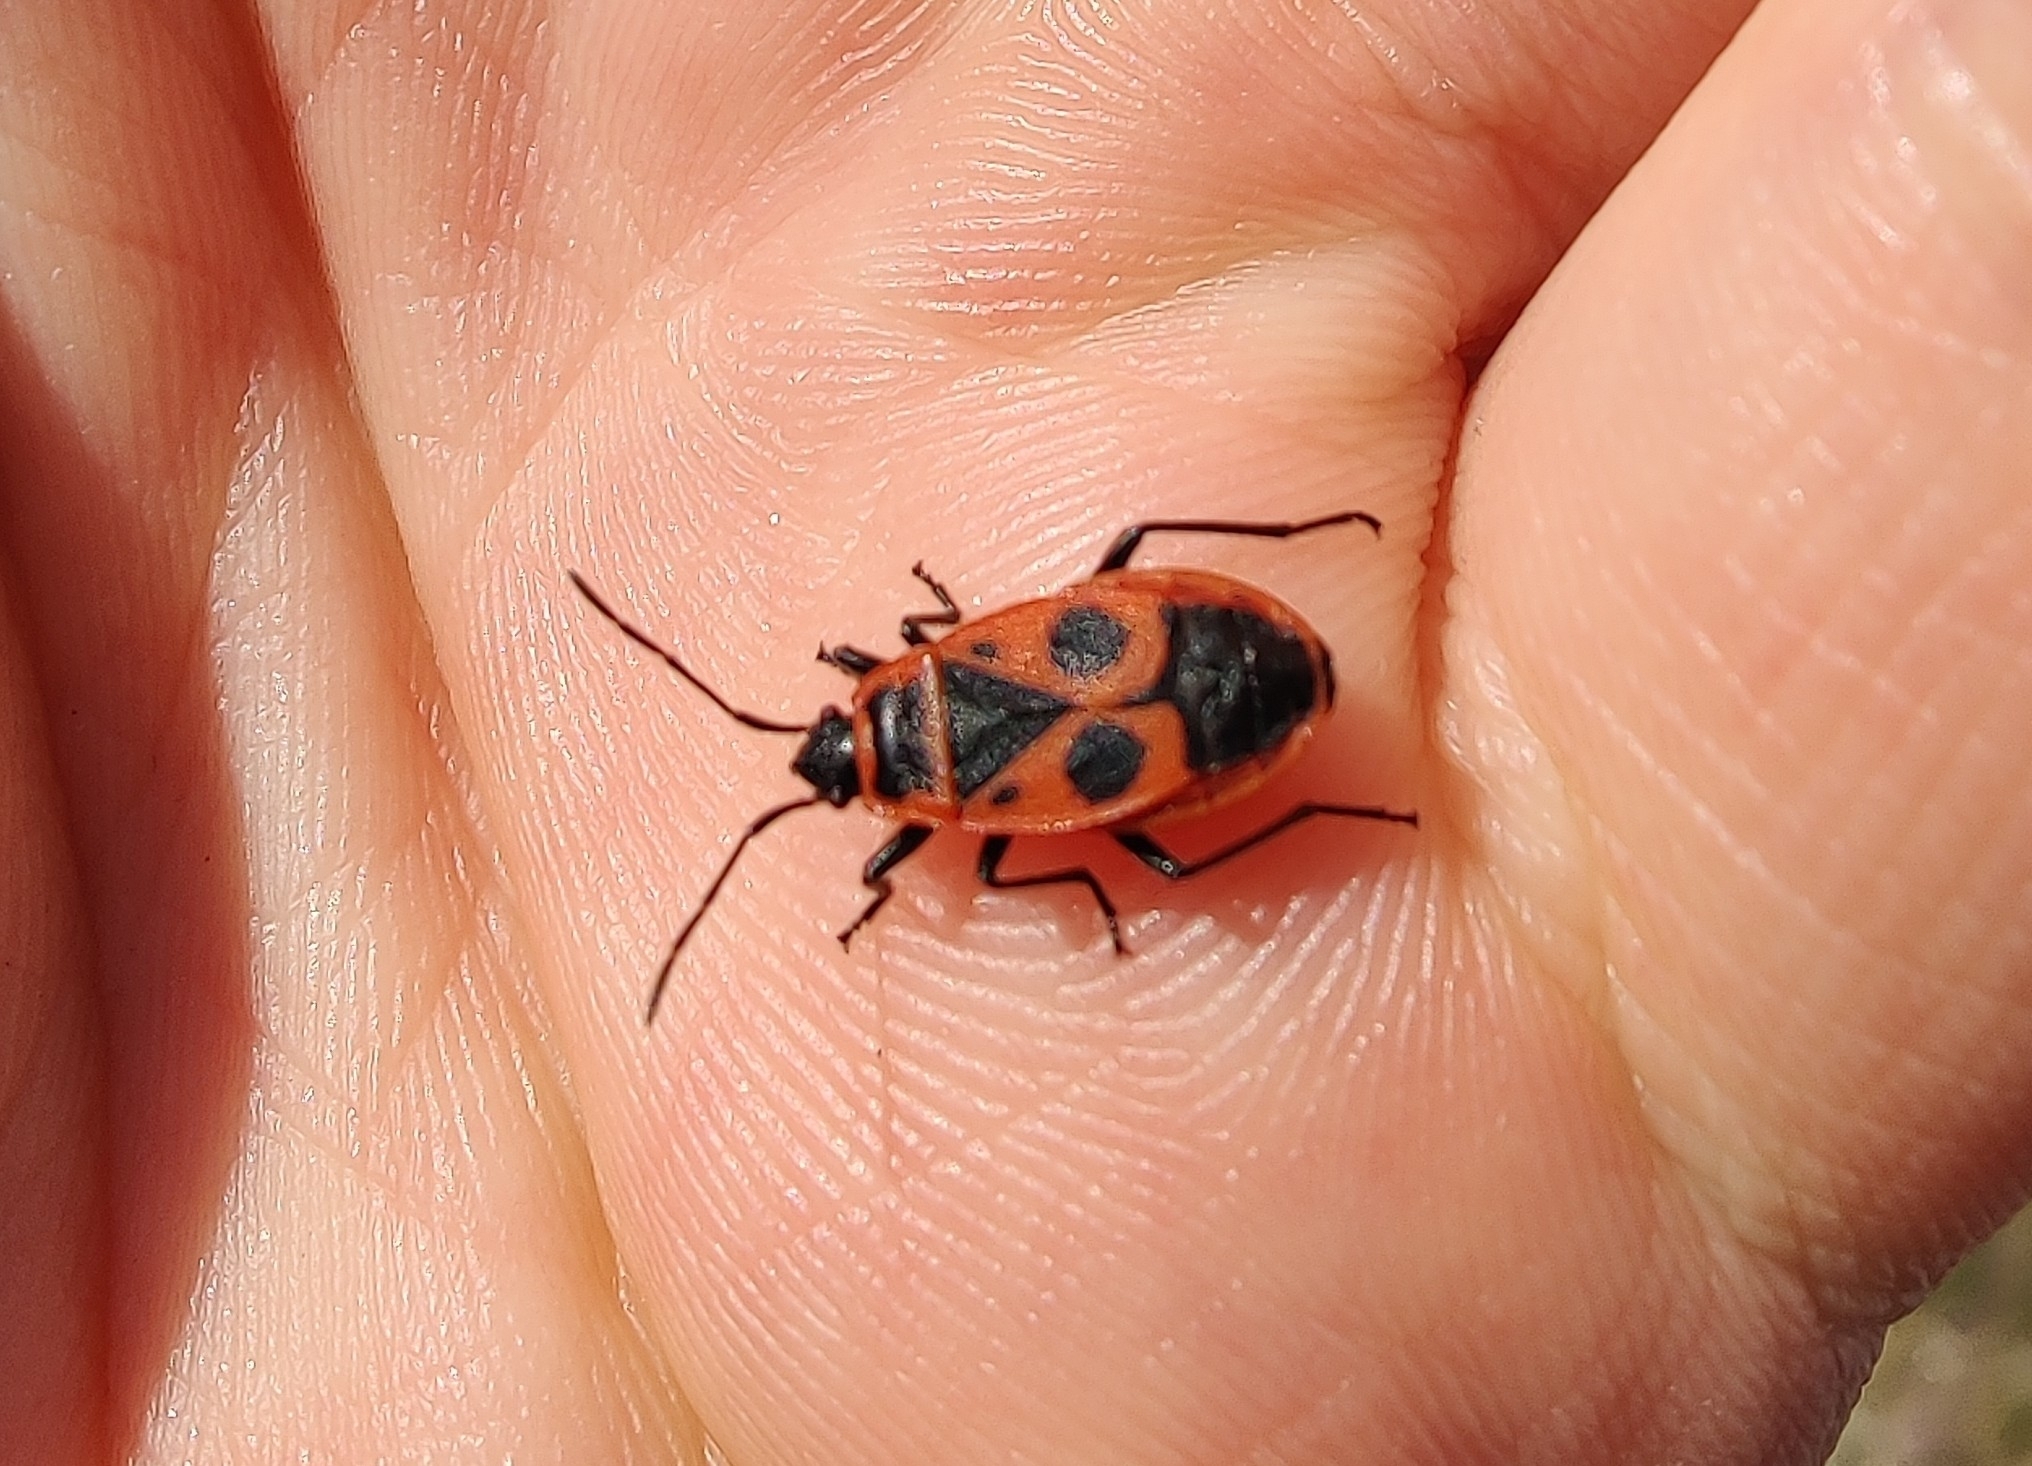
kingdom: Animalia
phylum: Arthropoda
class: Insecta
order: Hemiptera
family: Pyrrhocoridae
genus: Pyrrhocoris
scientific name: Pyrrhocoris apterus
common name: Firebug
